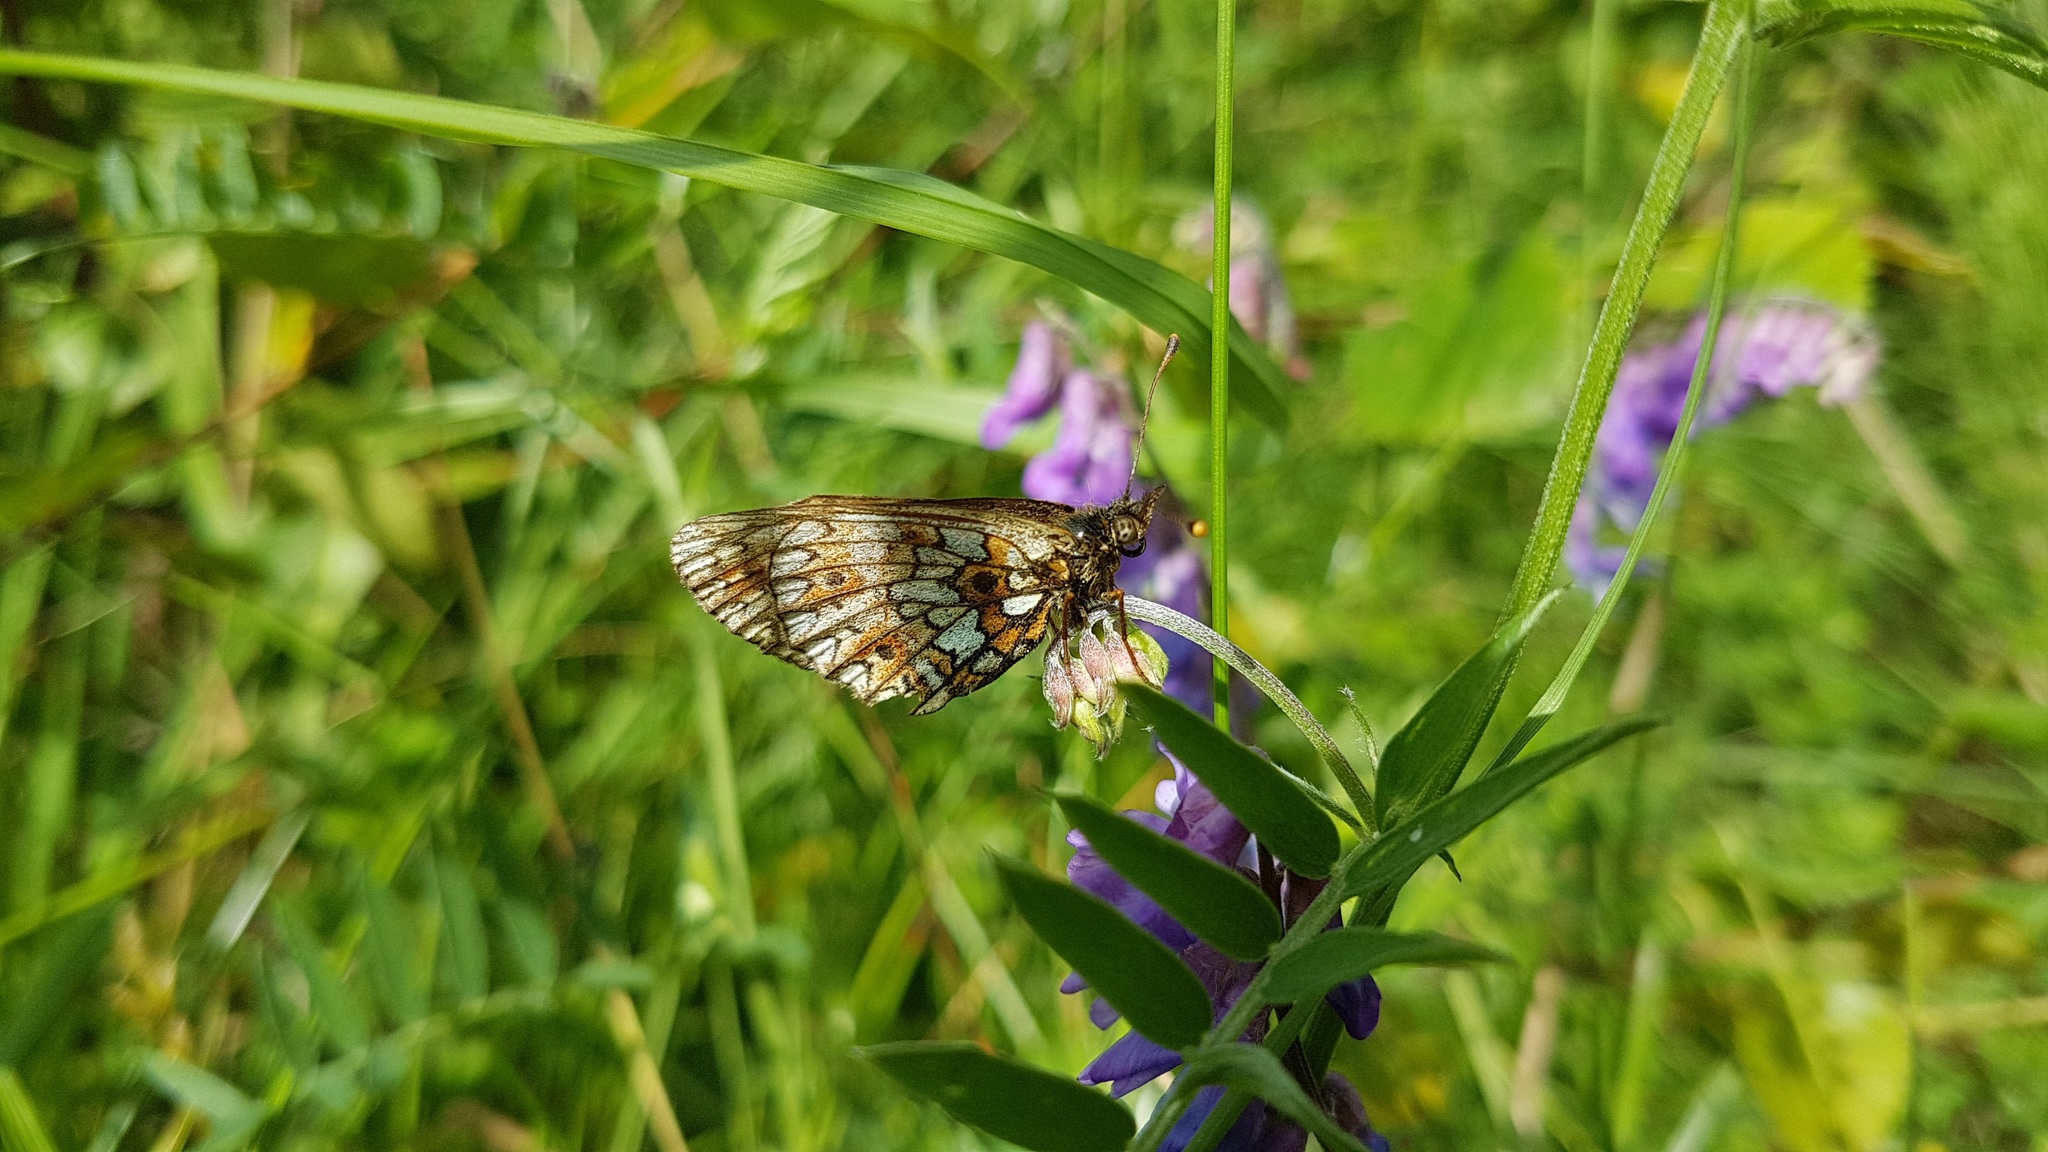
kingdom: Animalia
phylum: Arthropoda
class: Insecta
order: Lepidoptera
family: Nymphalidae
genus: Boloria
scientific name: Boloria selene
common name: Small pearl-bordered fritillary
